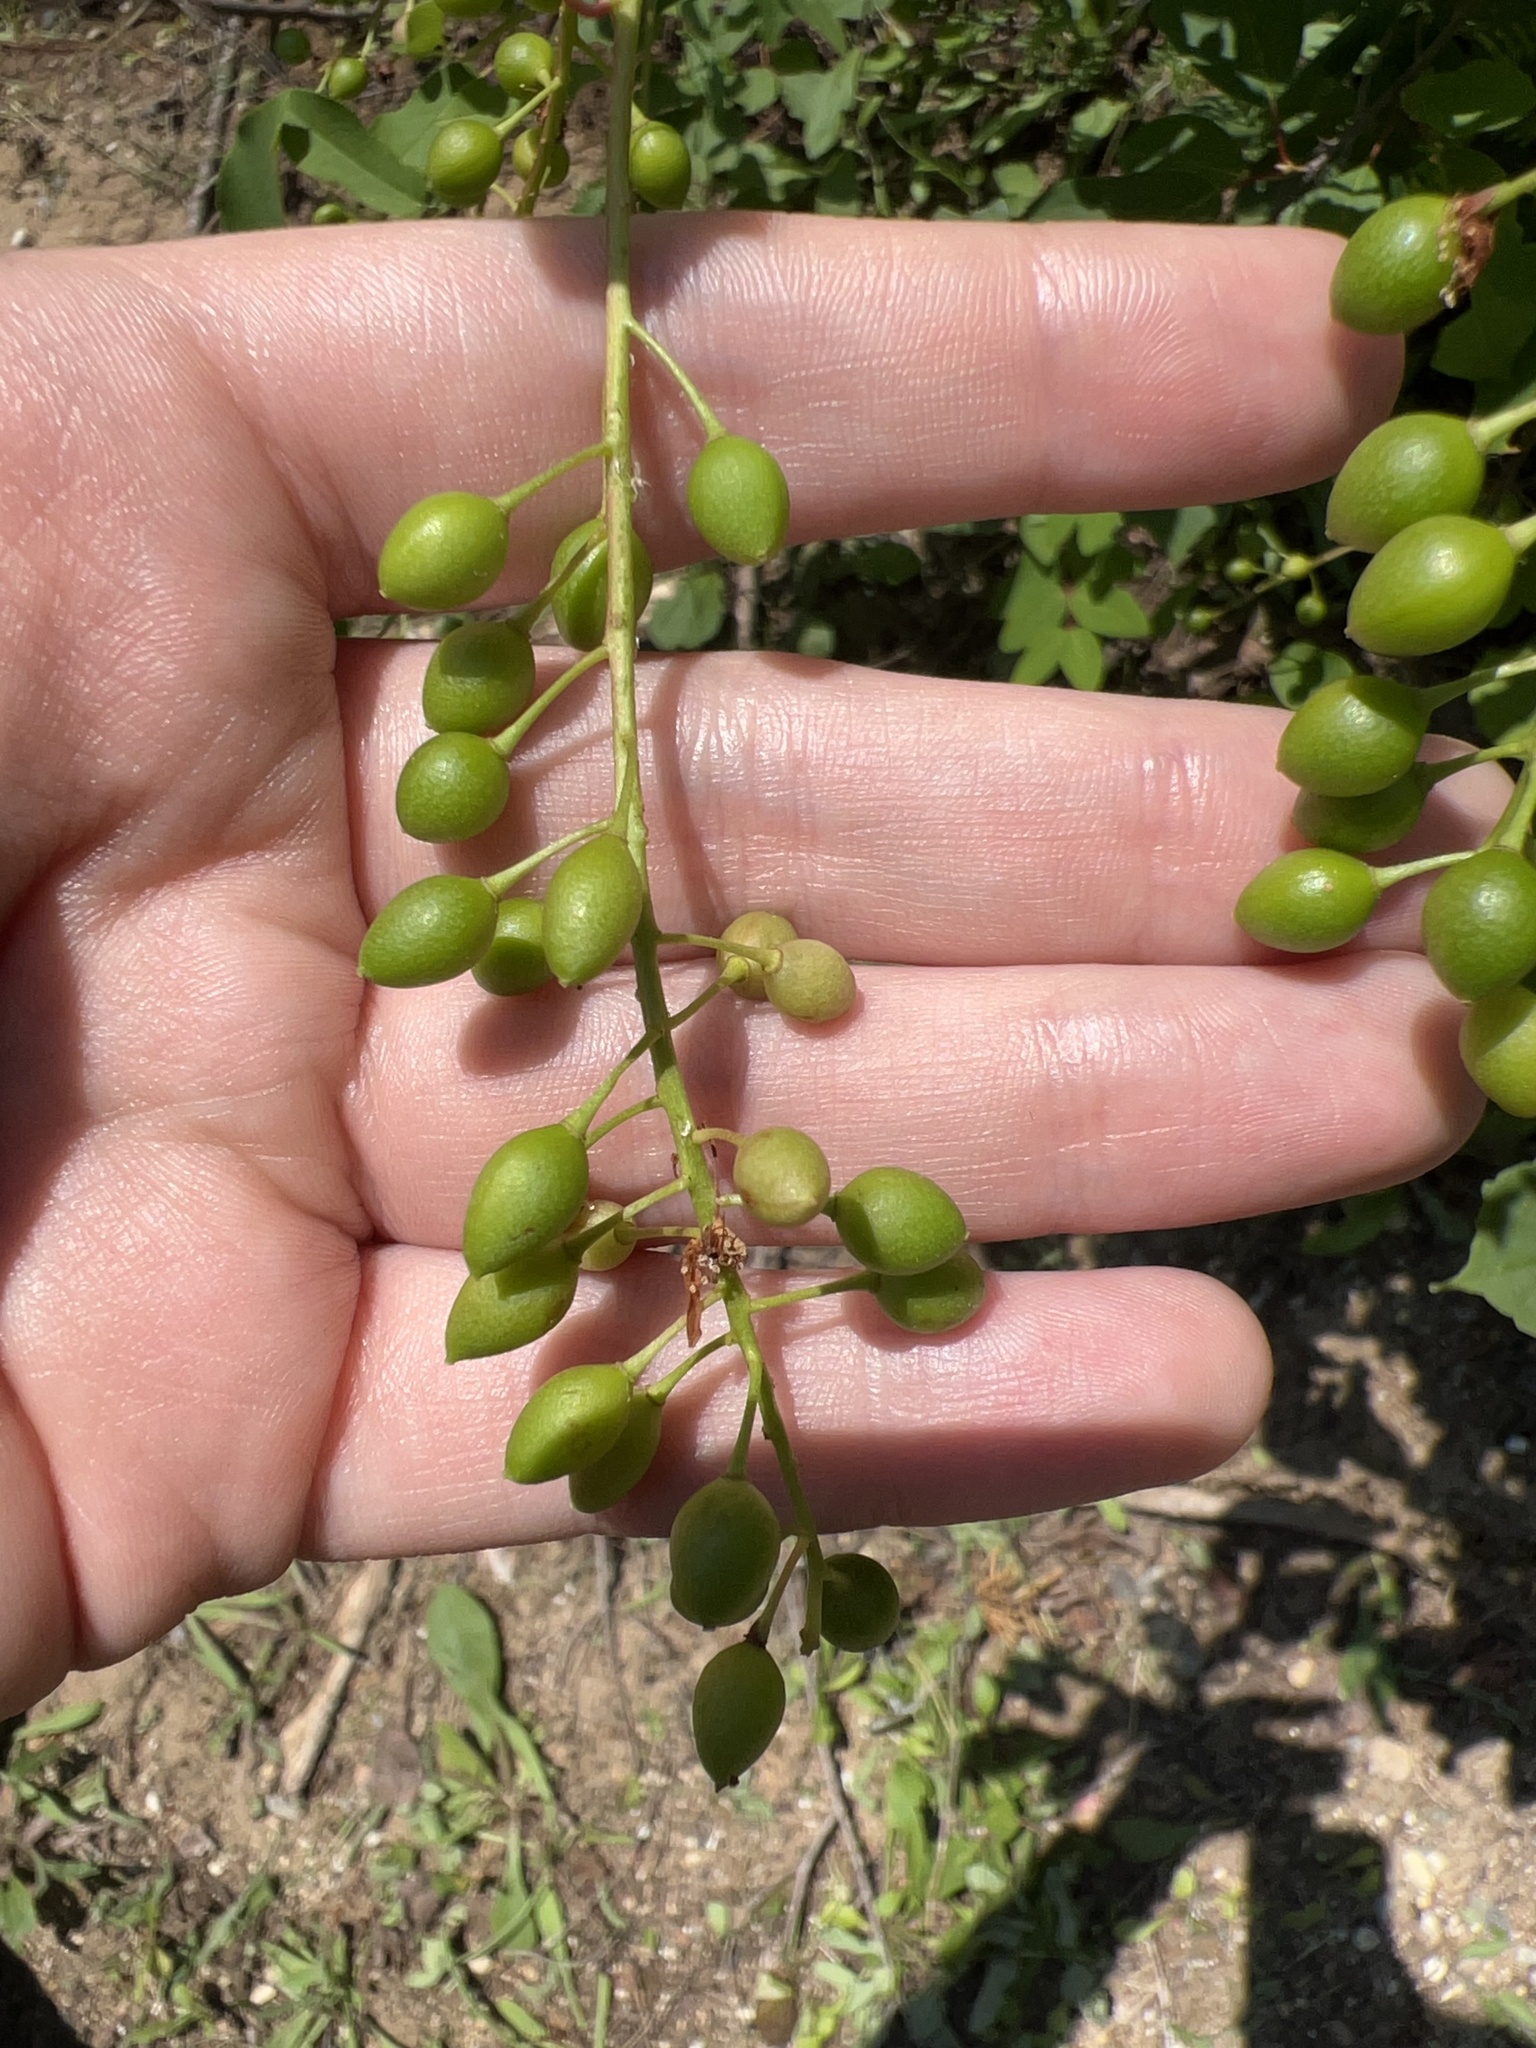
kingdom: Plantae
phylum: Tracheophyta
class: Magnoliopsida
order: Rosales
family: Rosaceae
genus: Prunus
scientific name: Prunus virginiana
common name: Chokecherry
